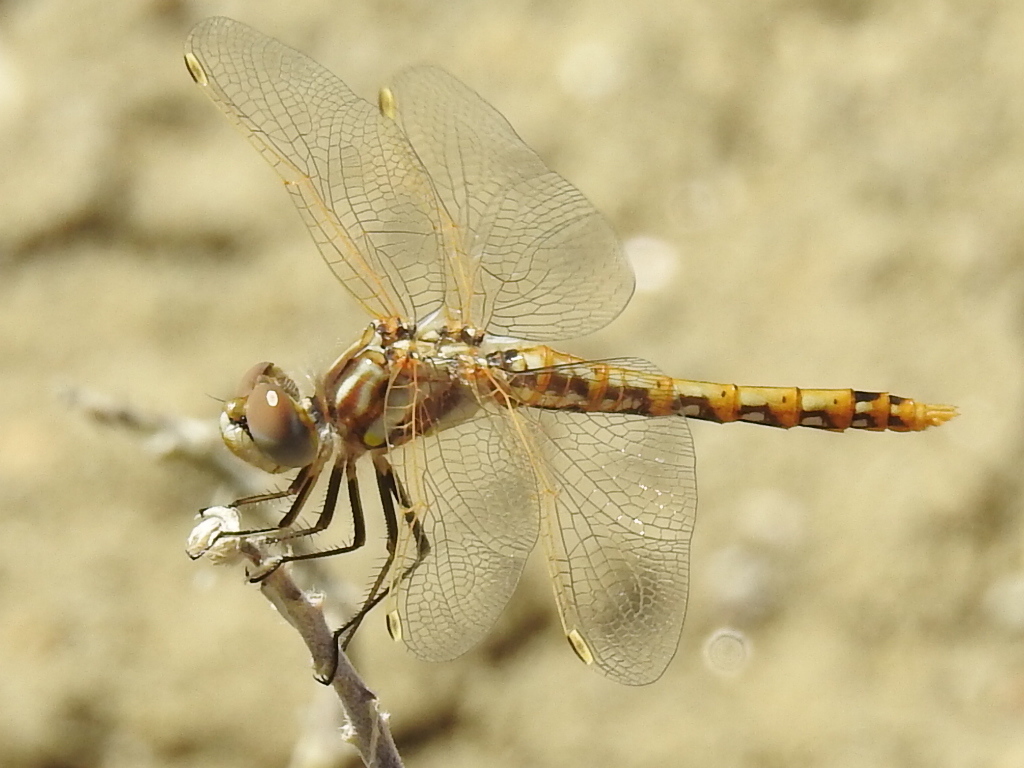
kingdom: Animalia
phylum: Arthropoda
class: Insecta
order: Odonata
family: Libellulidae
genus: Sympetrum
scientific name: Sympetrum corruptum
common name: Variegated meadowhawk
